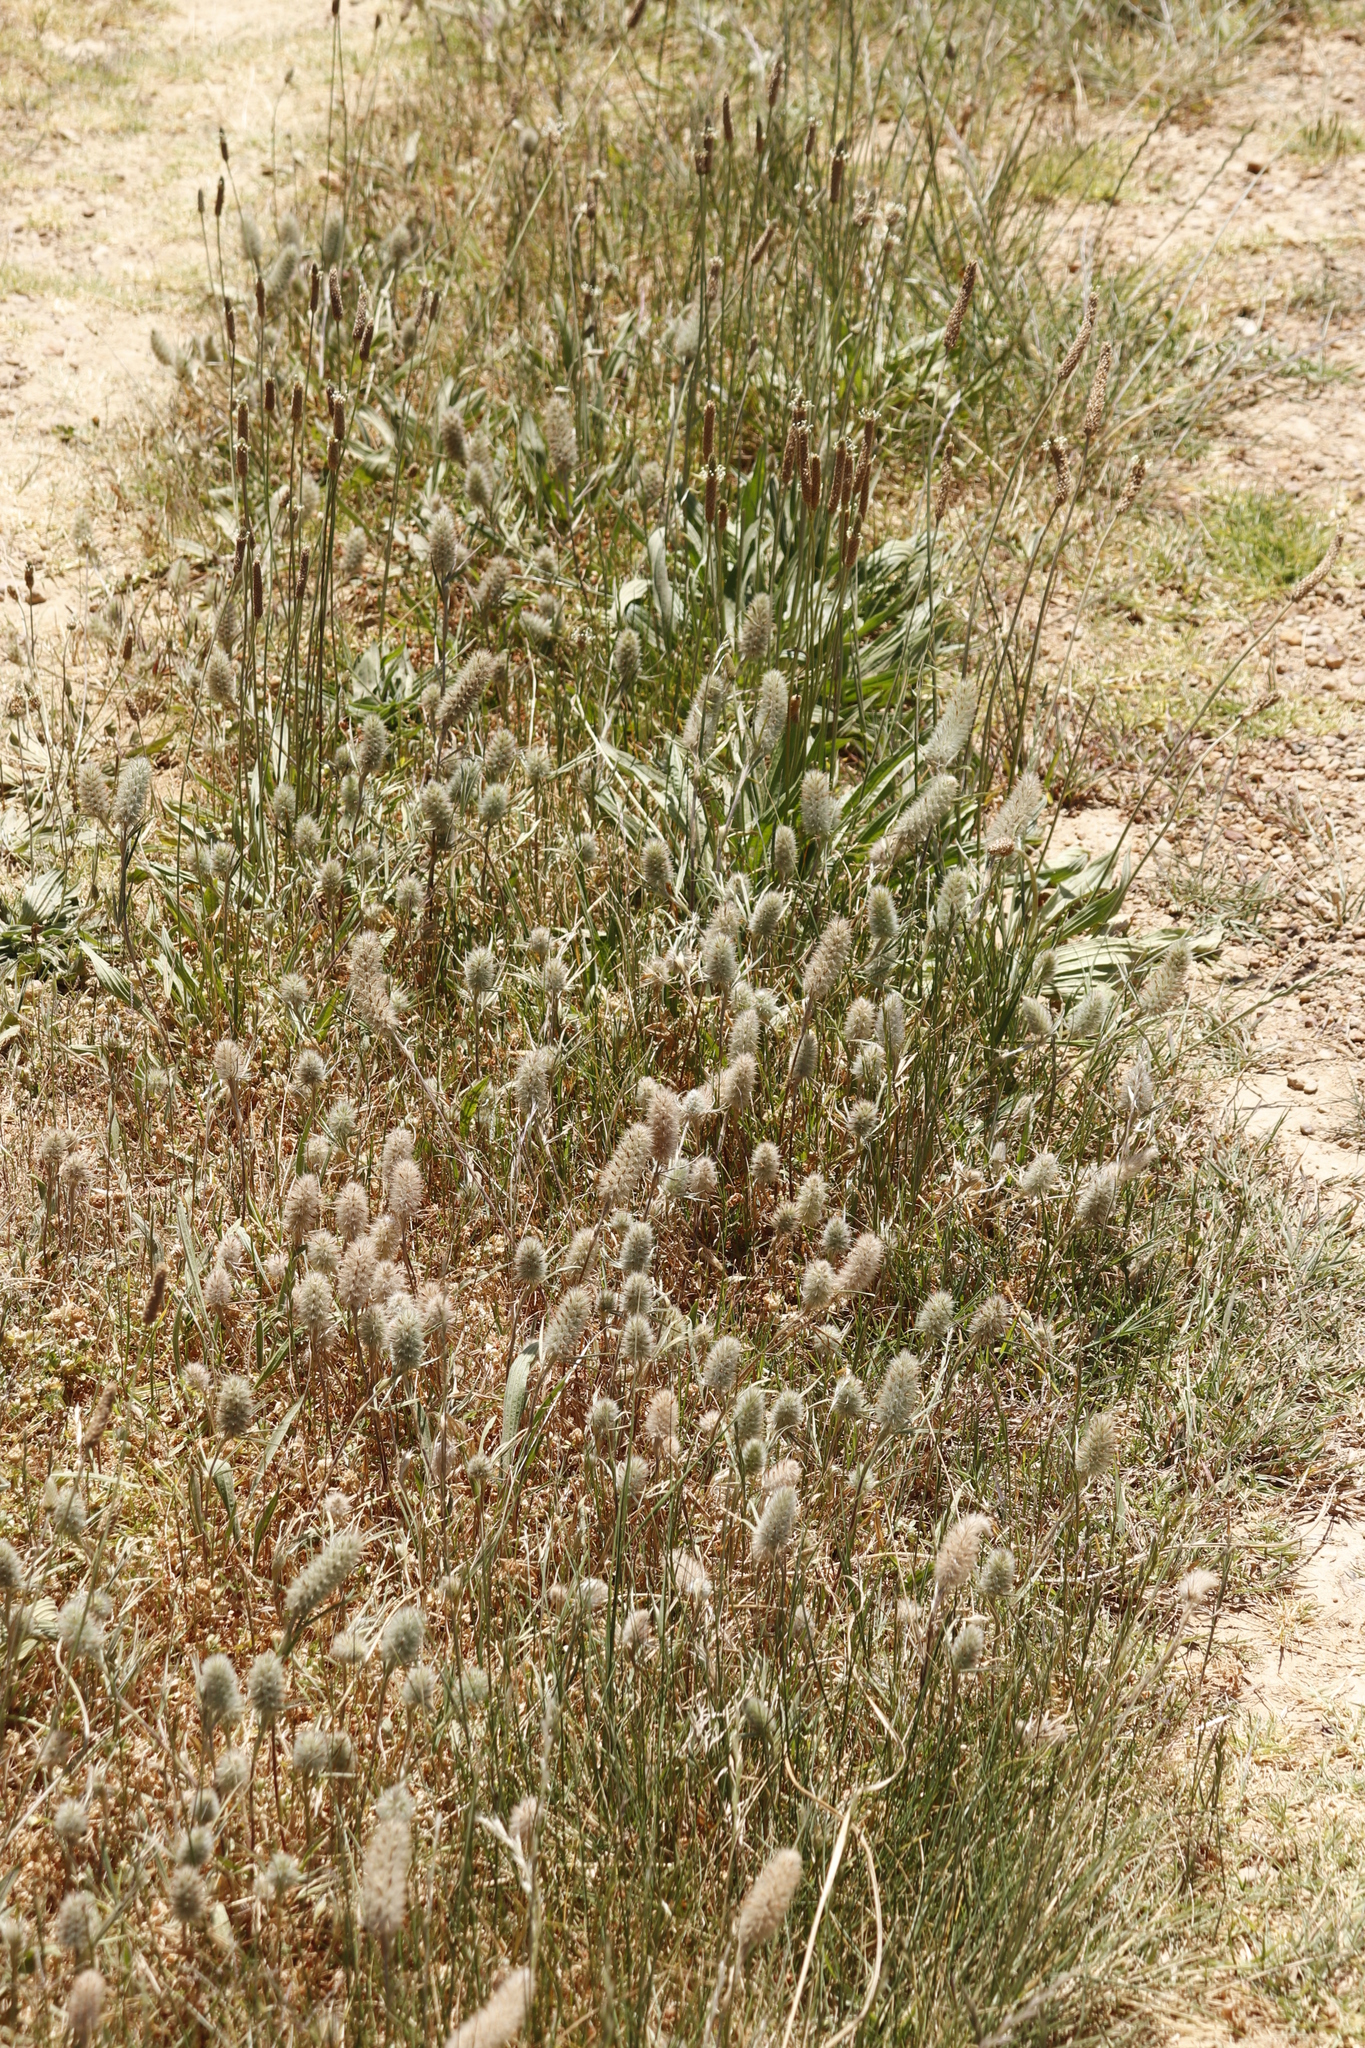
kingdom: Plantae
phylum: Tracheophyta
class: Magnoliopsida
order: Fabales
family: Fabaceae
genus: Trifolium
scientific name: Trifolium angustifolium
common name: Narrow clover
